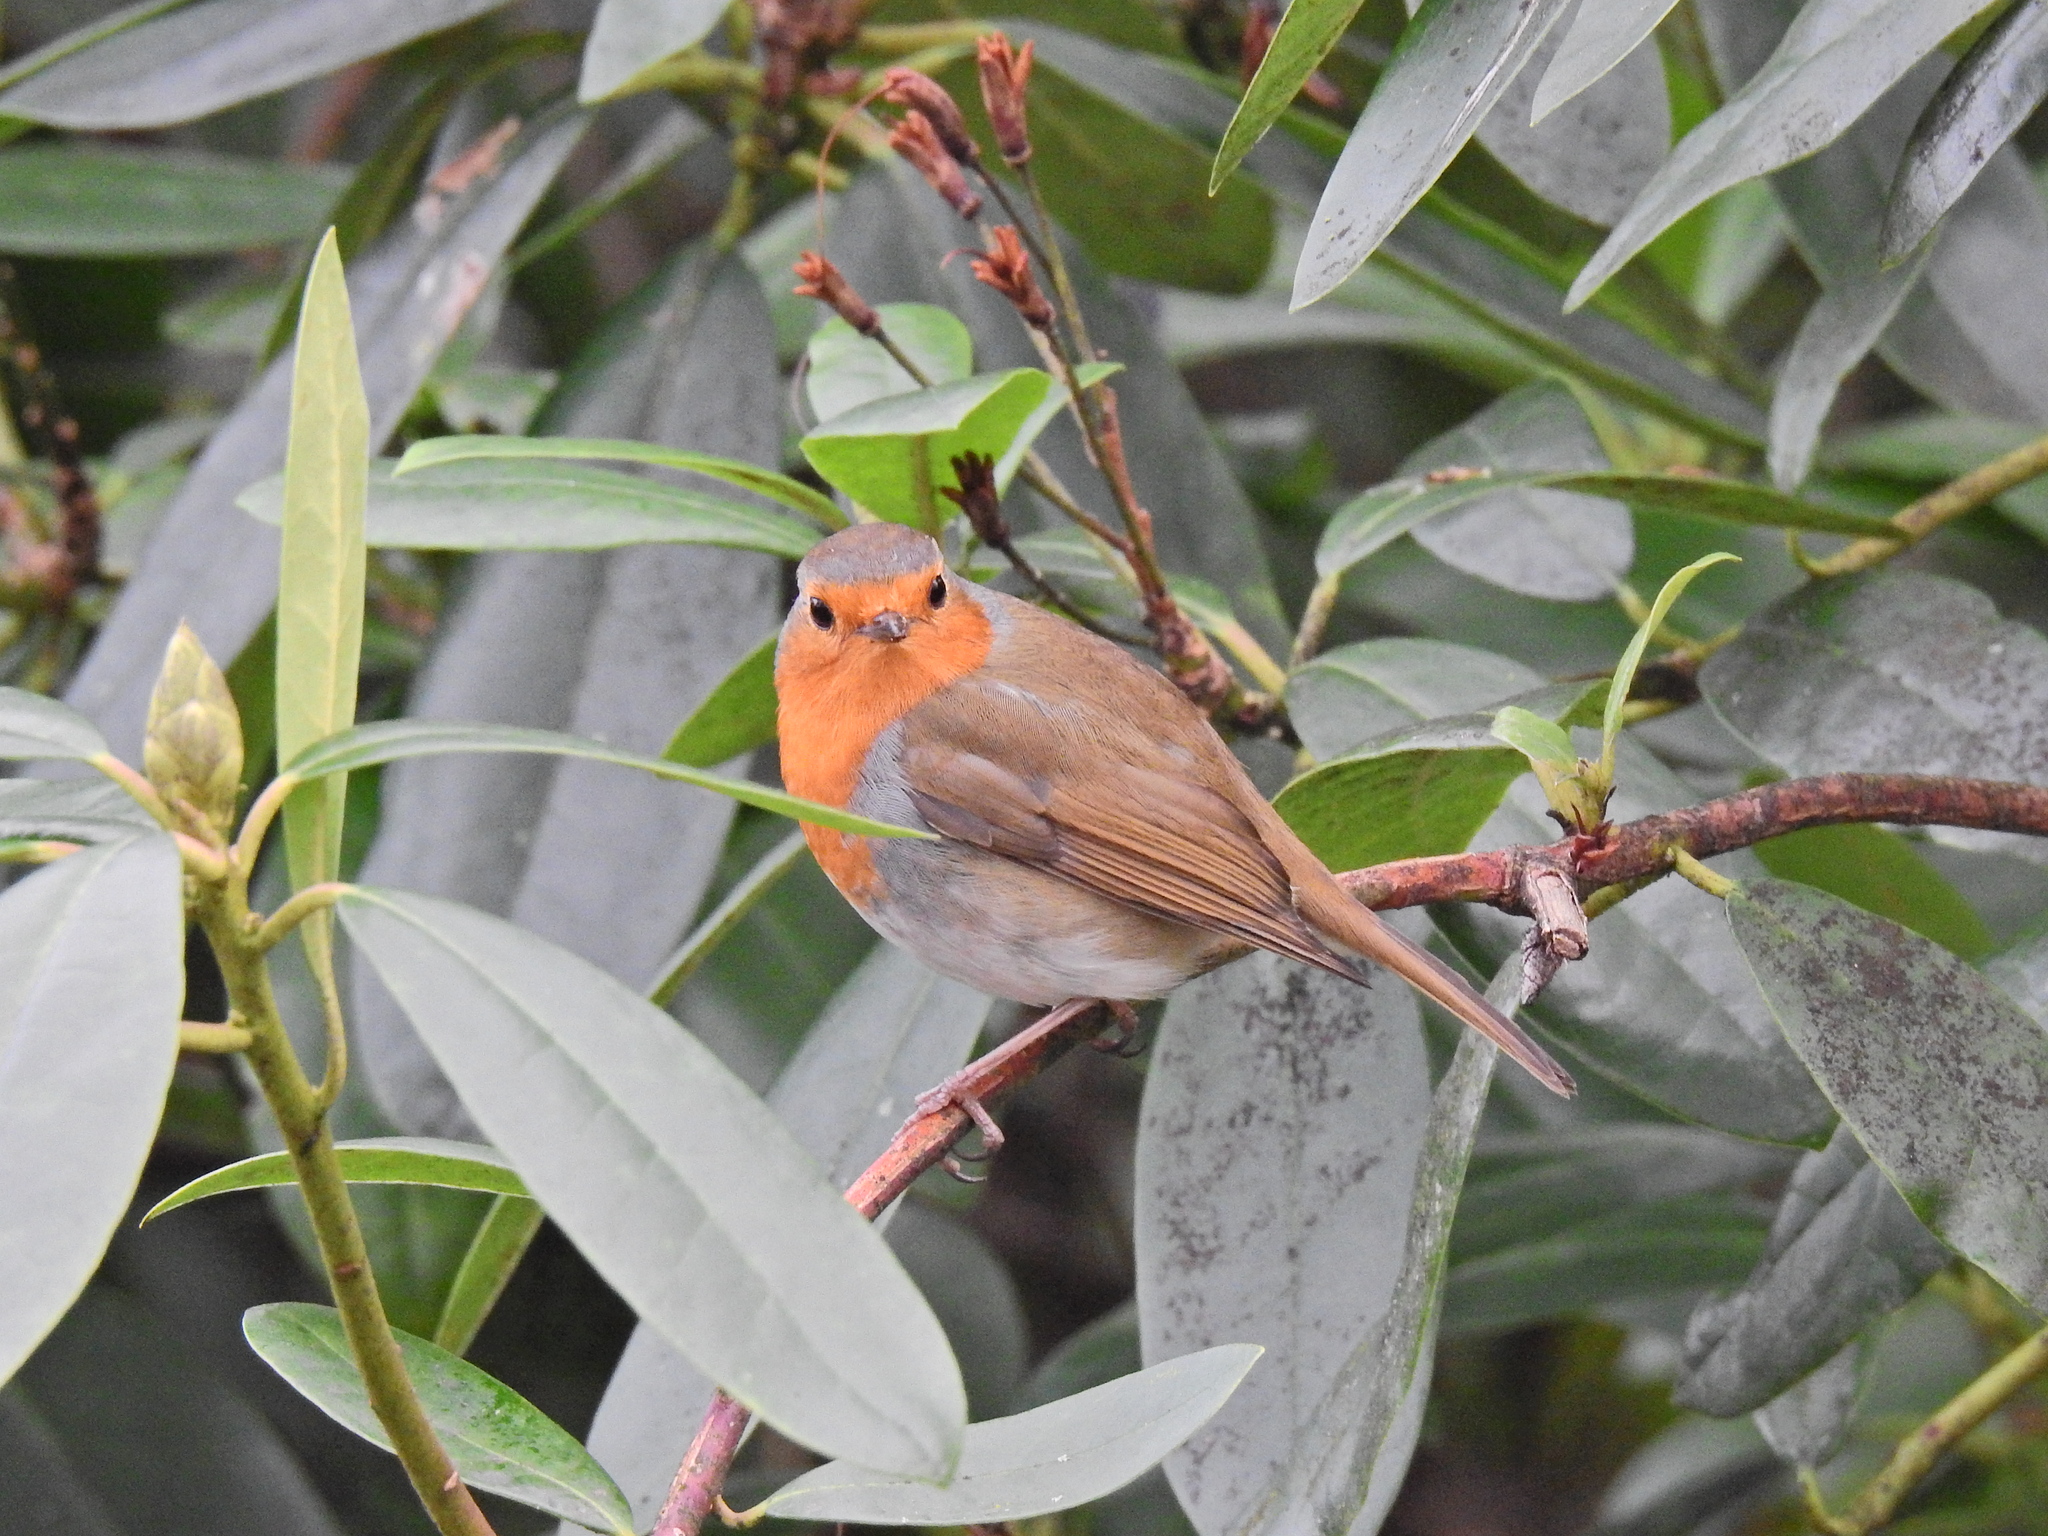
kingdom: Animalia
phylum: Chordata
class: Aves
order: Passeriformes
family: Muscicapidae
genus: Erithacus
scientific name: Erithacus rubecula
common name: European robin
